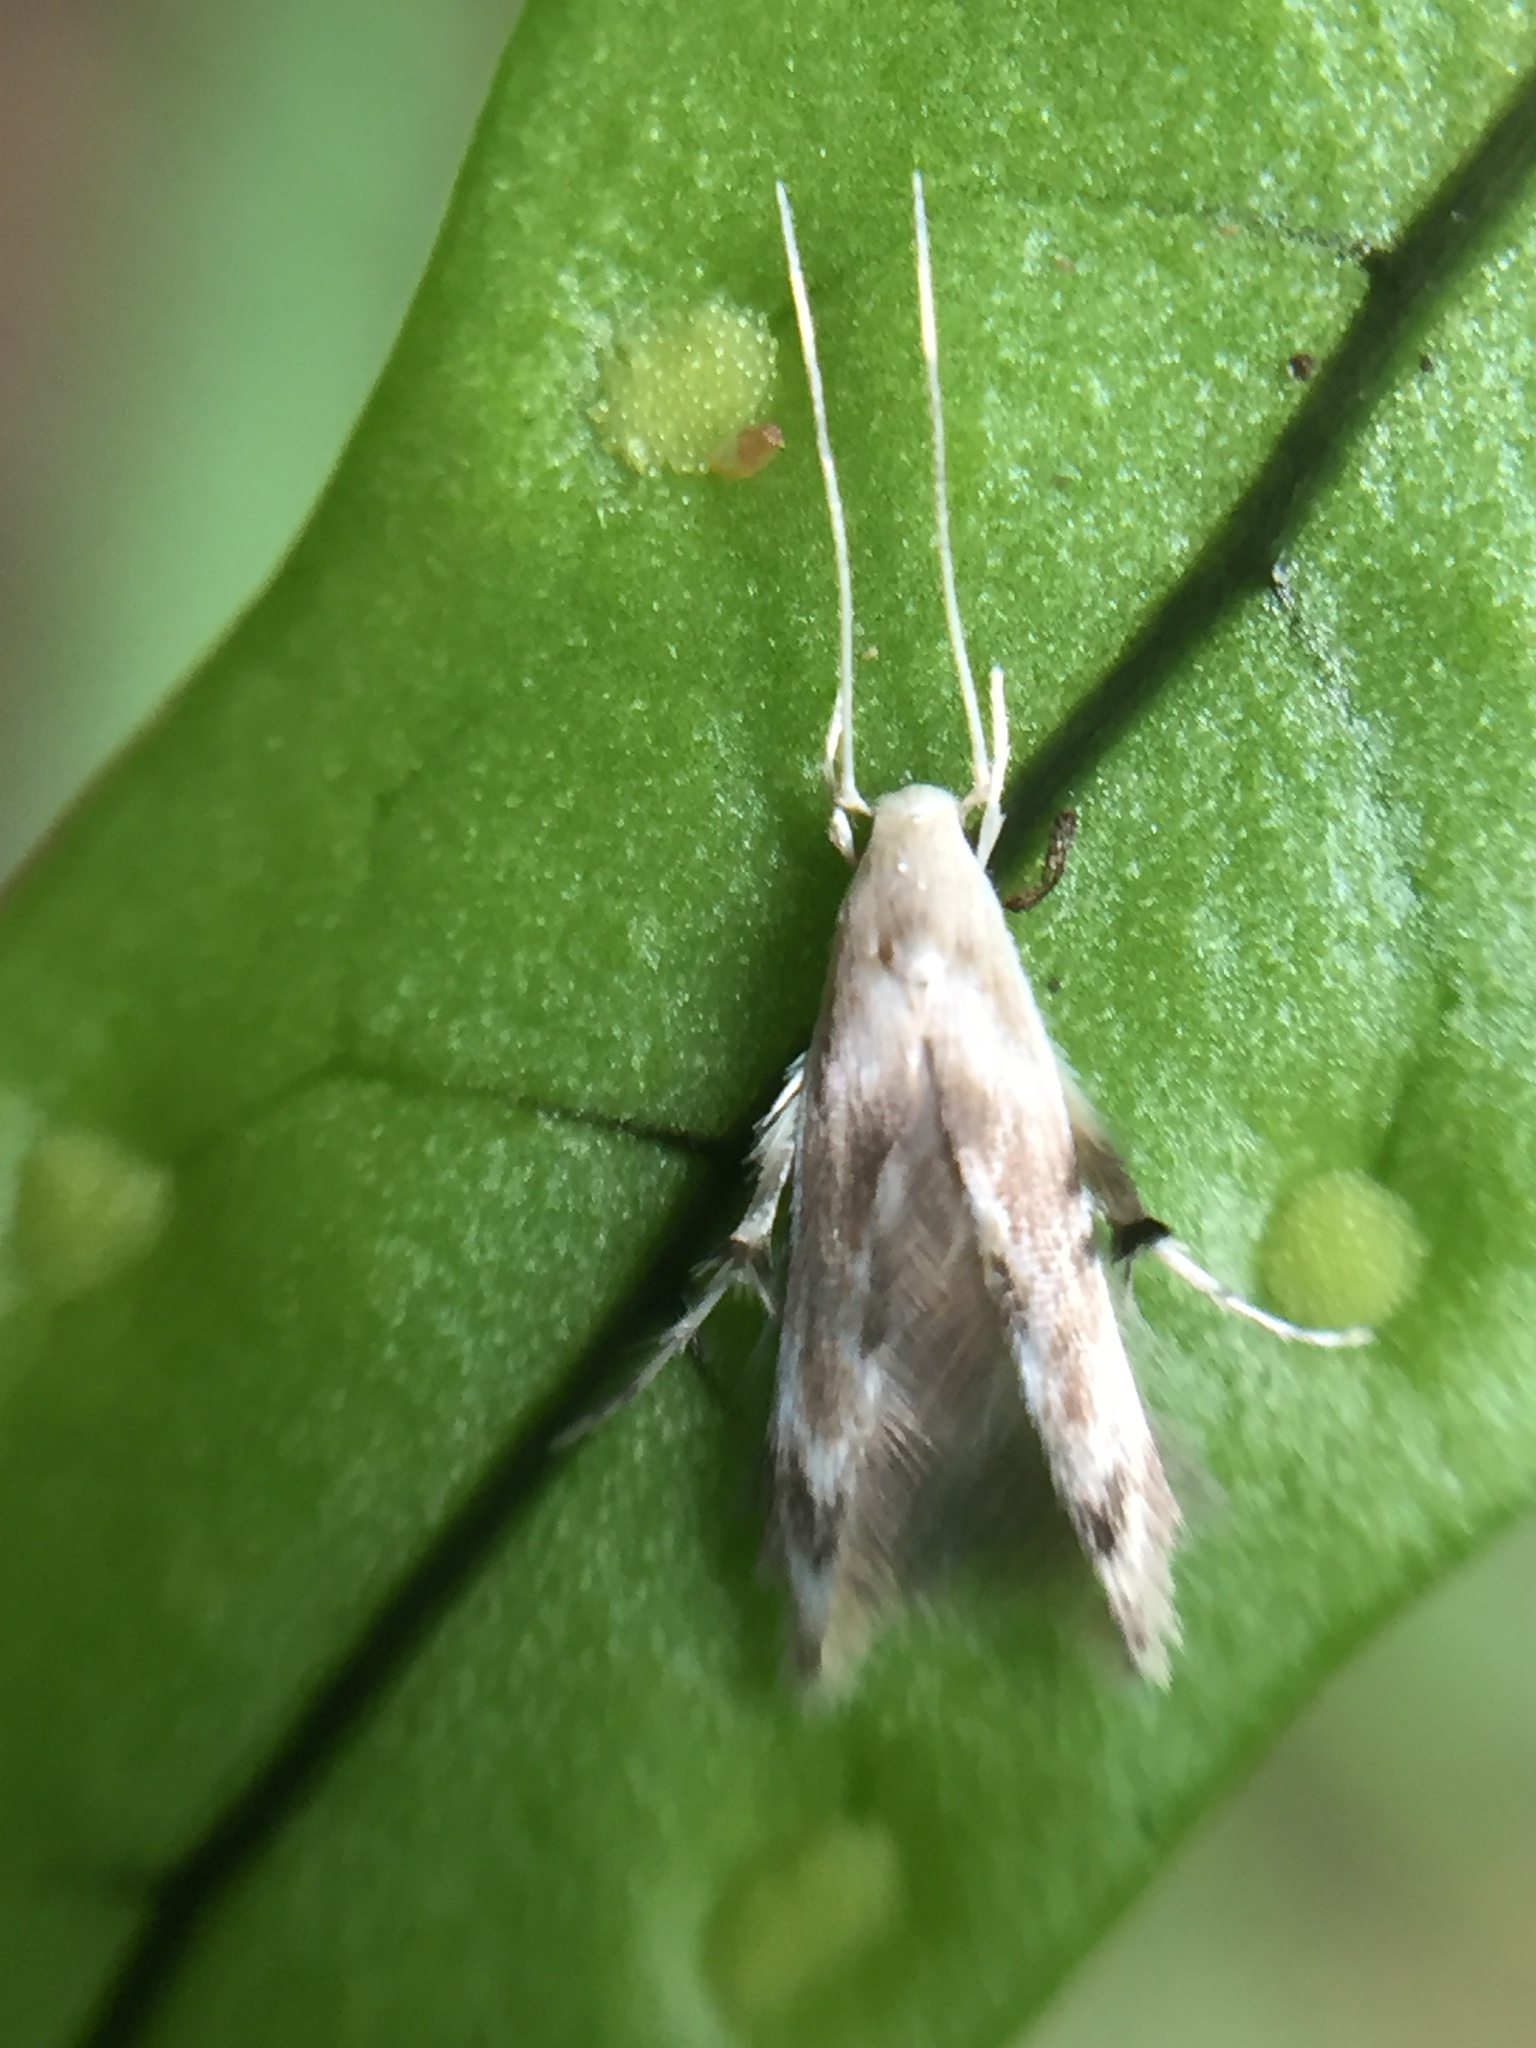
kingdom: Animalia
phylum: Arthropoda
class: Insecta
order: Lepidoptera
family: Stathmopodidae
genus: Thylacosceles
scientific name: Thylacosceles radians
